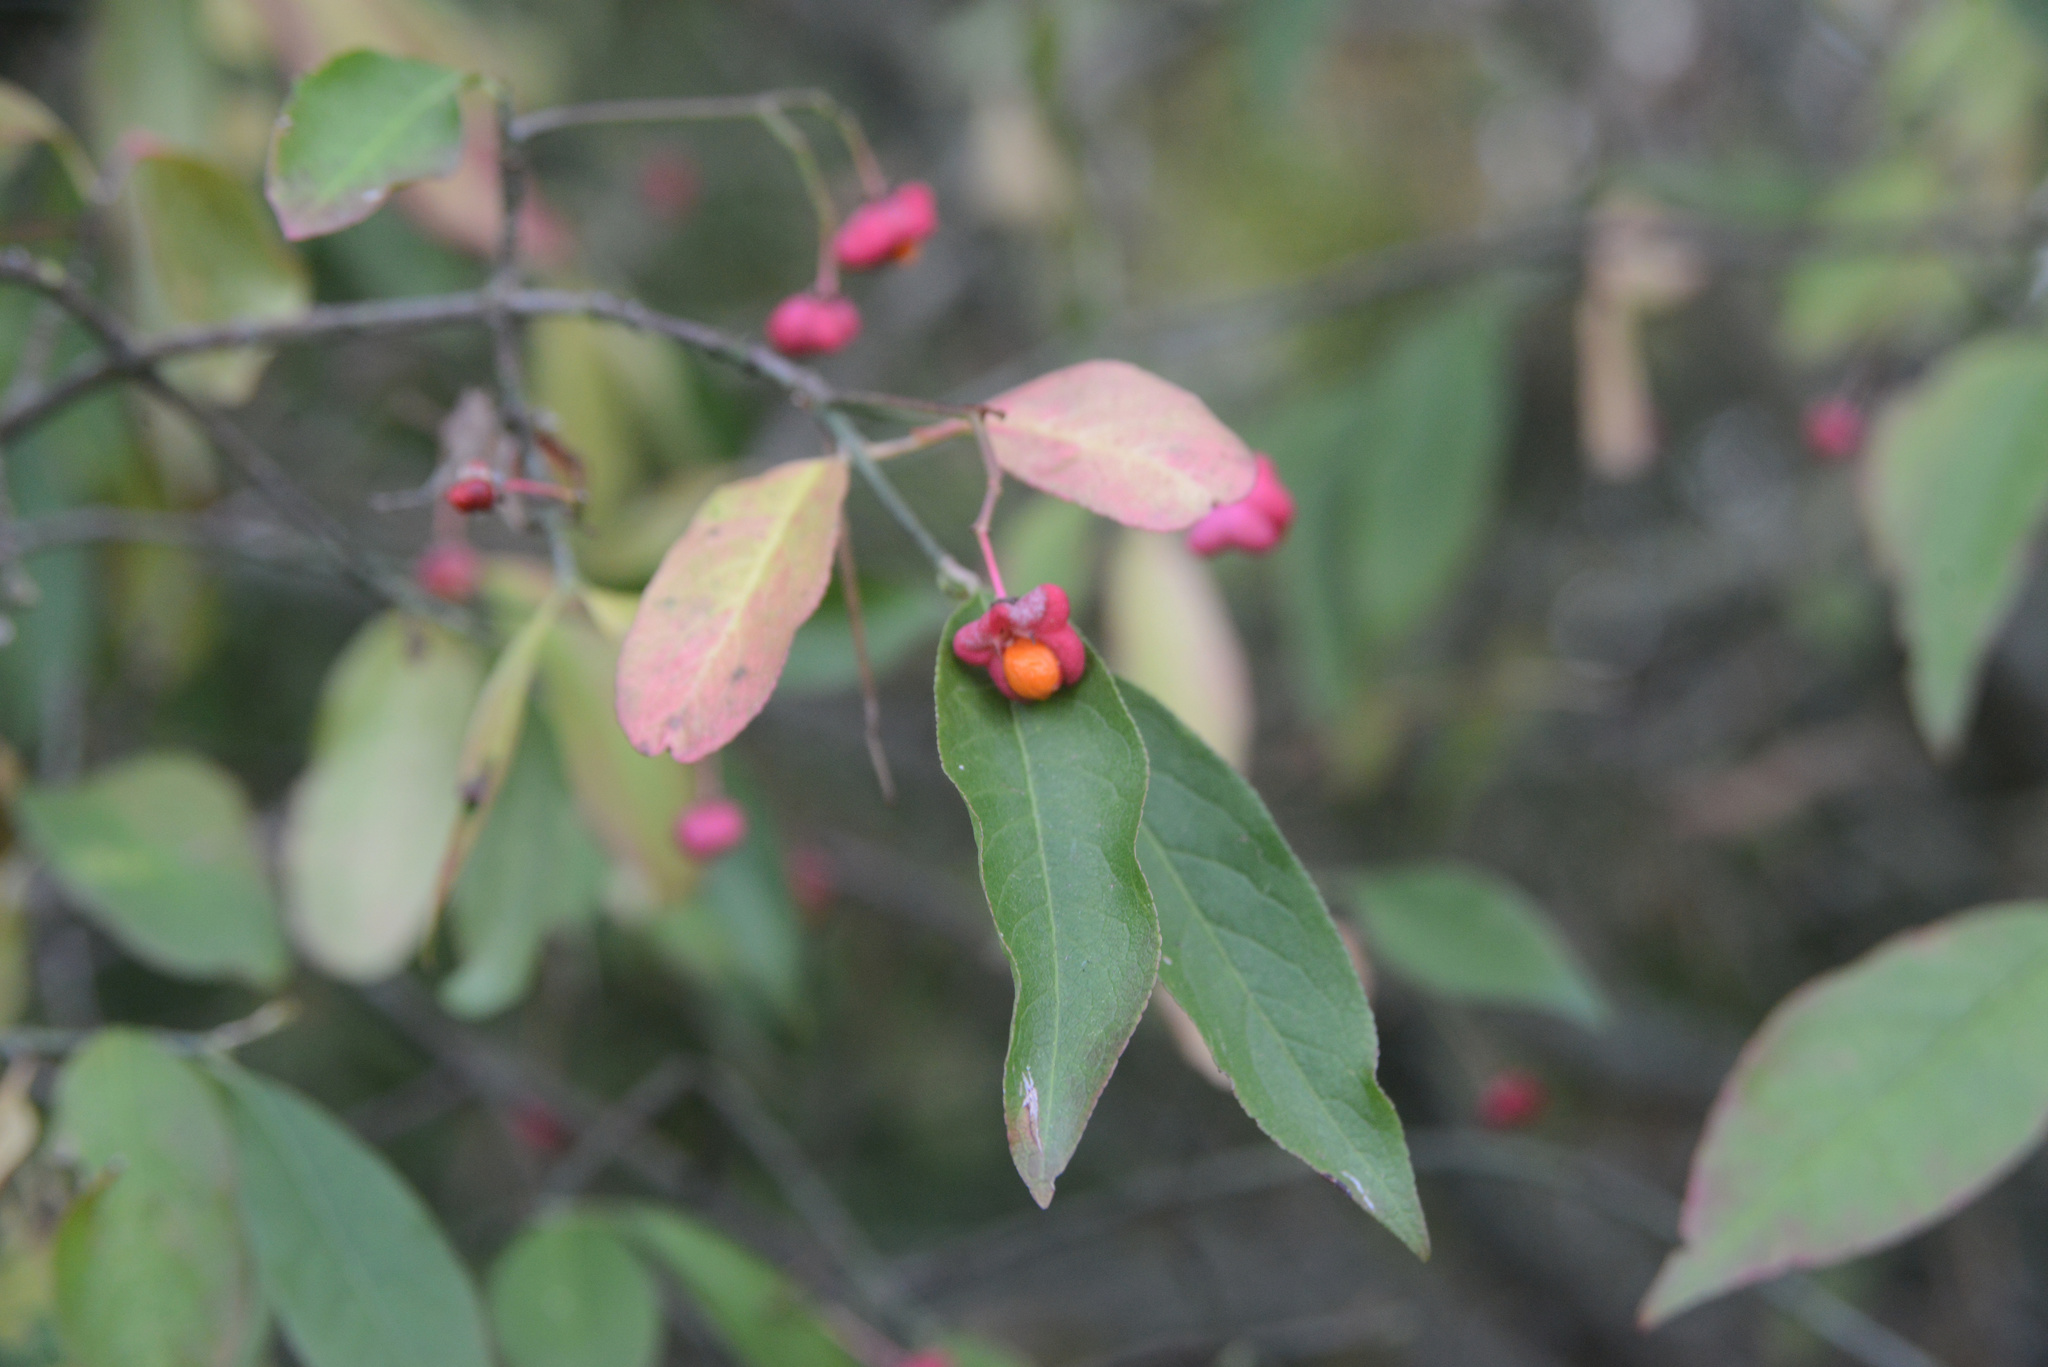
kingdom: Plantae
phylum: Tracheophyta
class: Magnoliopsida
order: Celastrales
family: Celastraceae
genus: Euonymus
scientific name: Euonymus europaeus
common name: Spindle
